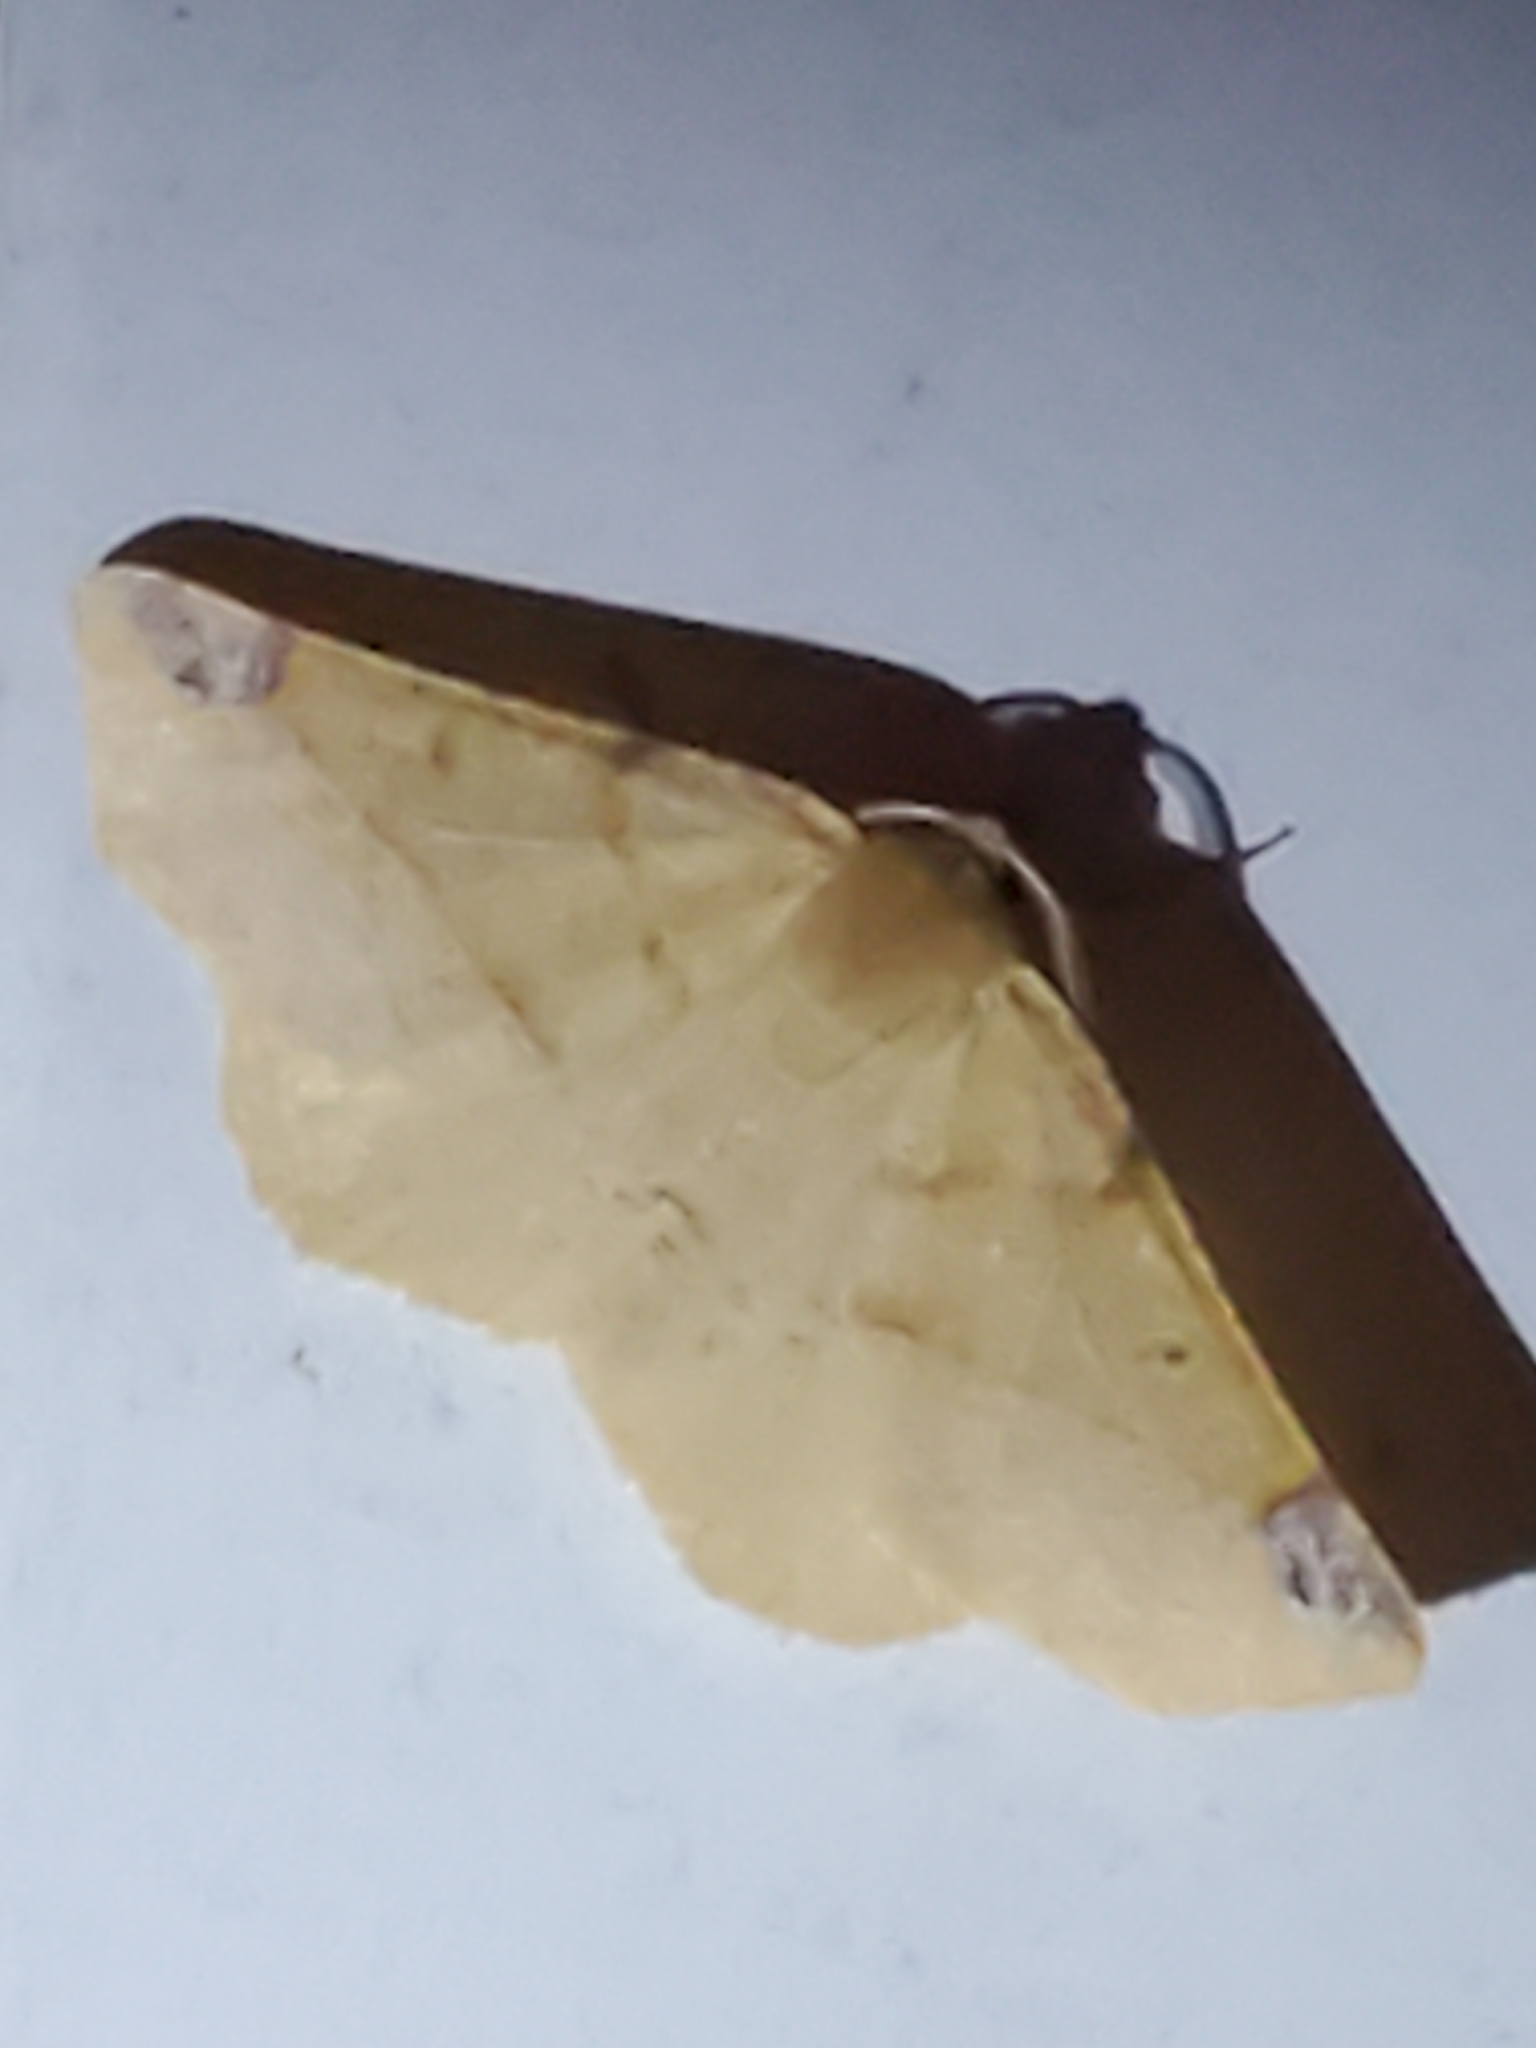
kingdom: Animalia
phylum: Arthropoda
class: Insecta
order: Lepidoptera
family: Geometridae
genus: Synaxis
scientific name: Synaxis triangulata
